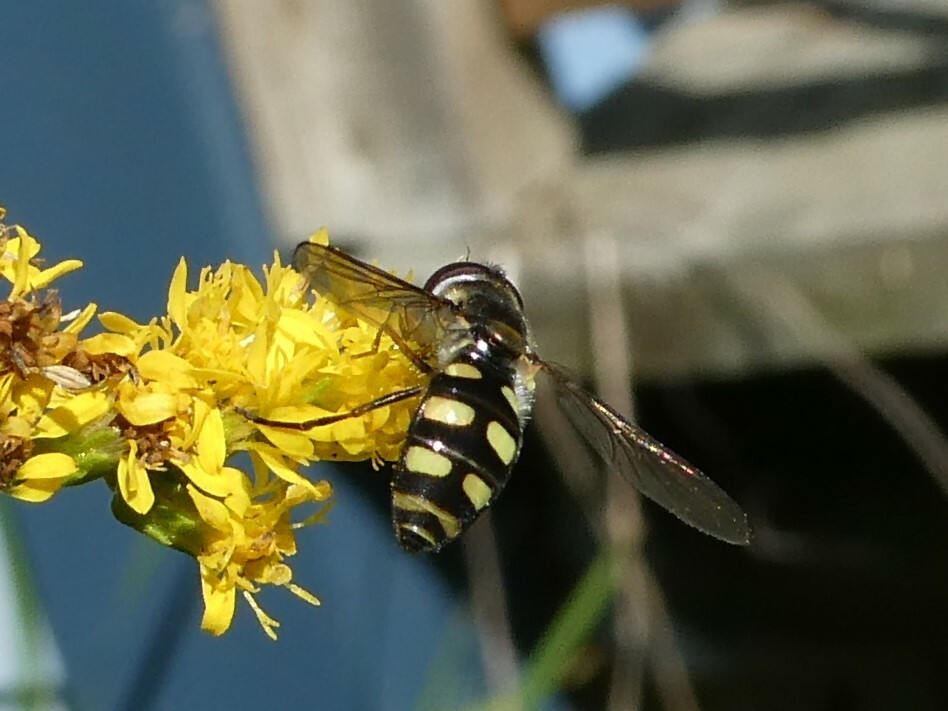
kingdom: Animalia
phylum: Arthropoda
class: Insecta
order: Diptera
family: Syrphidae
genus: Epistrophella
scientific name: Epistrophella emarginata
